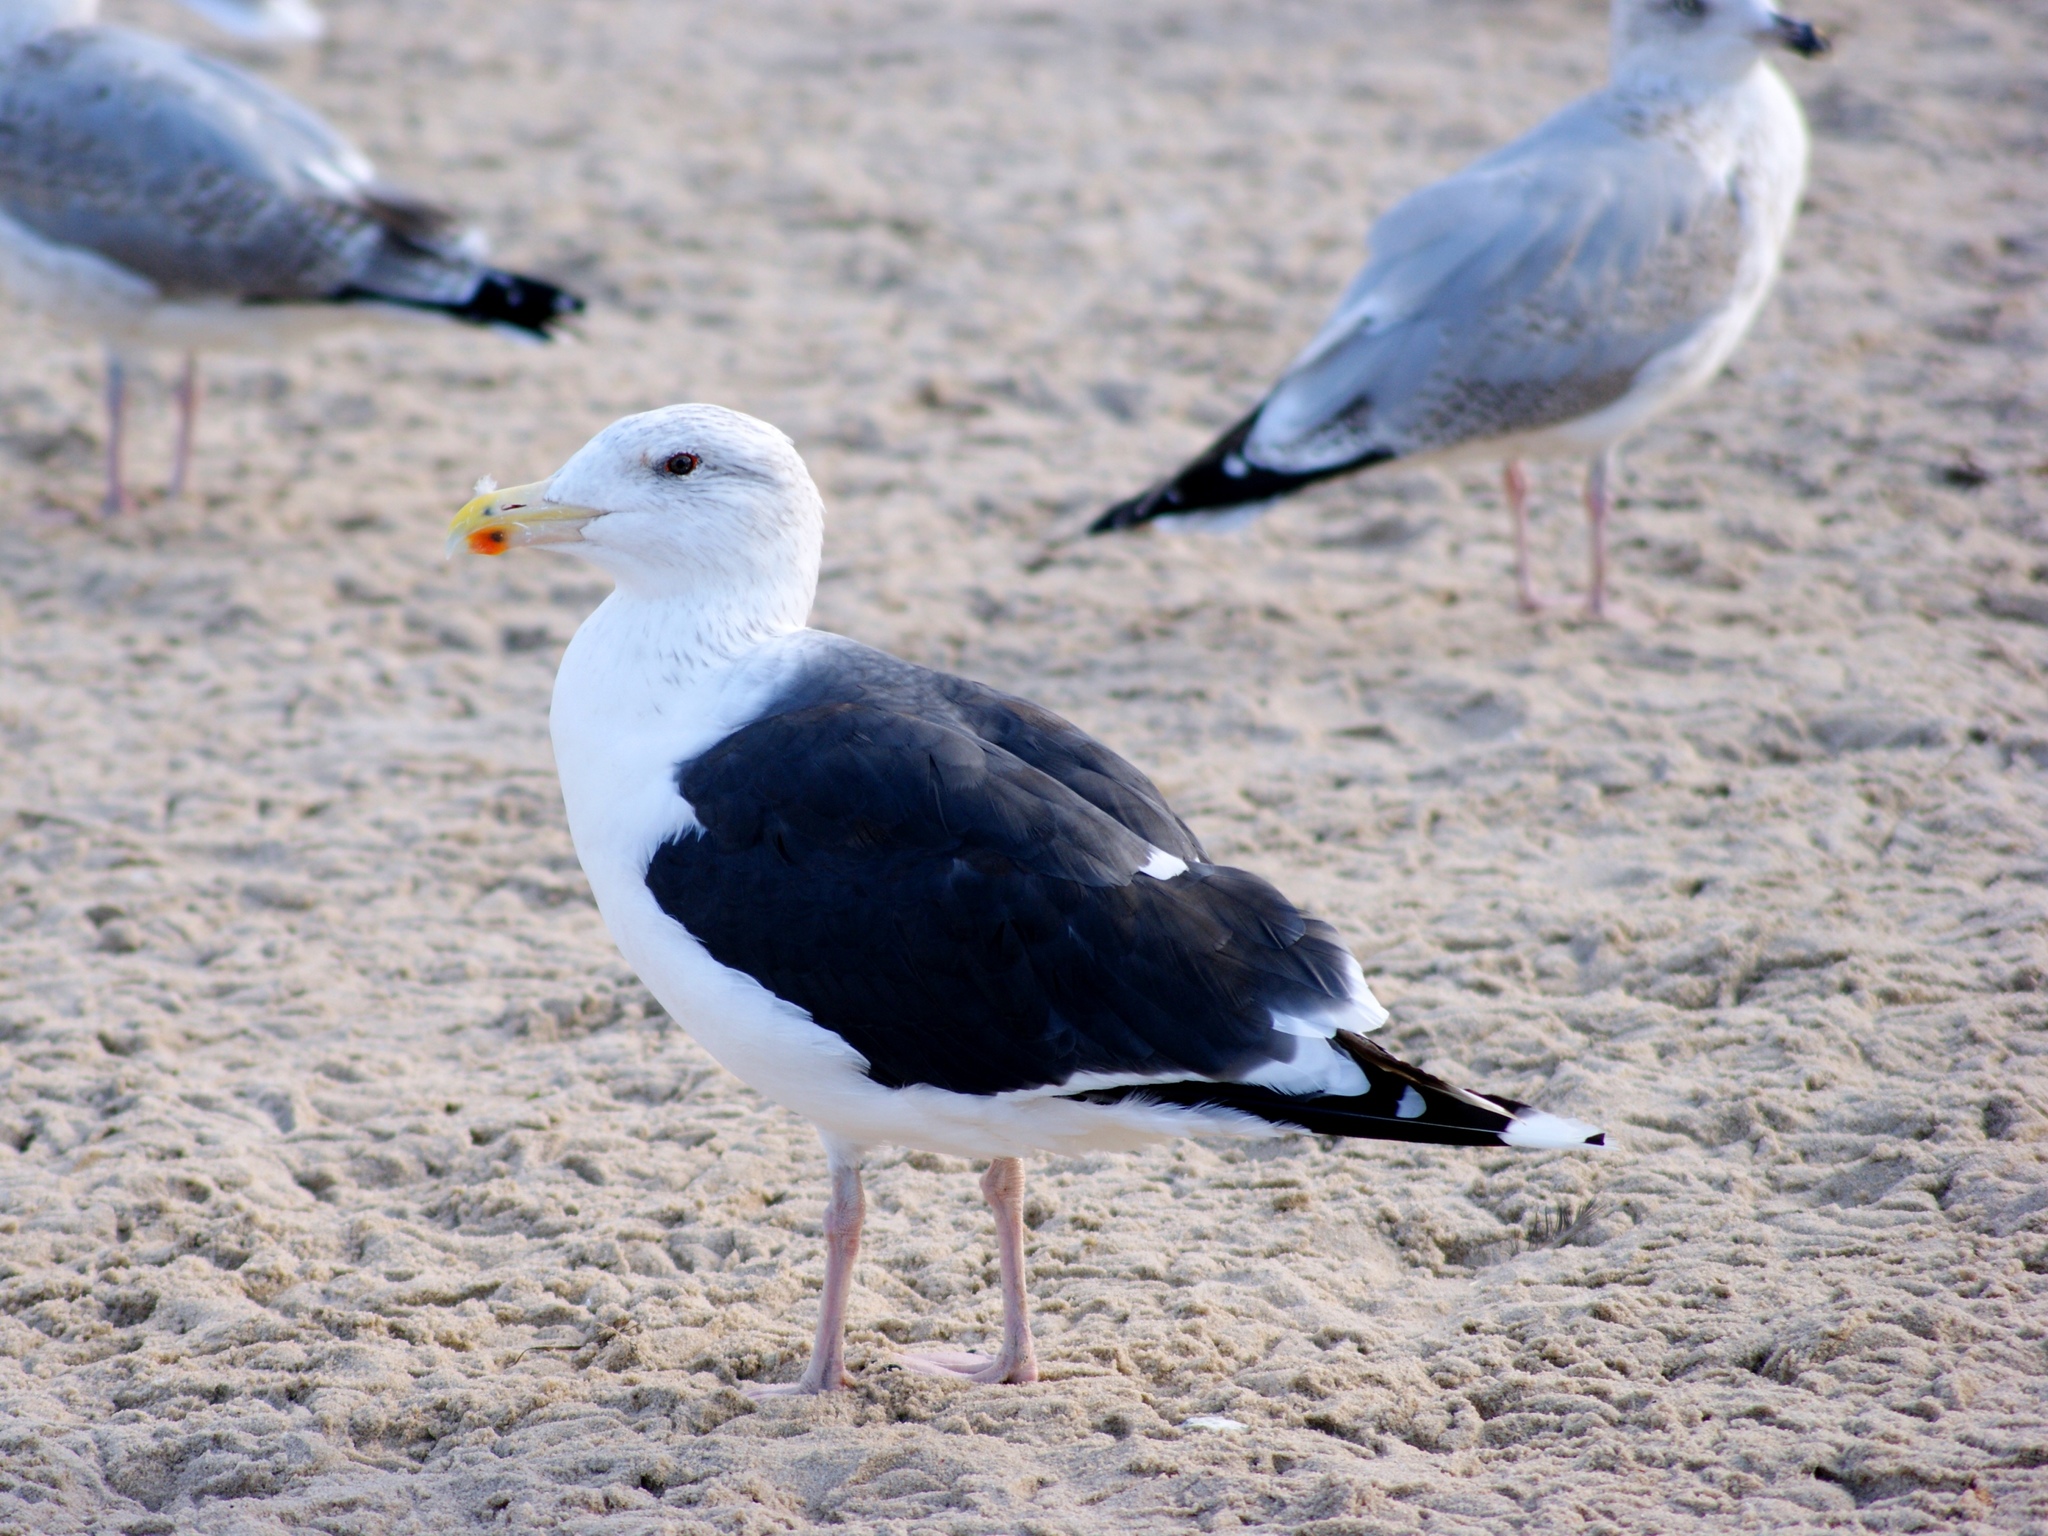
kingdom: Animalia
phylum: Chordata
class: Aves
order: Charadriiformes
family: Laridae
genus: Larus
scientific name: Larus marinus
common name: Great black-backed gull
